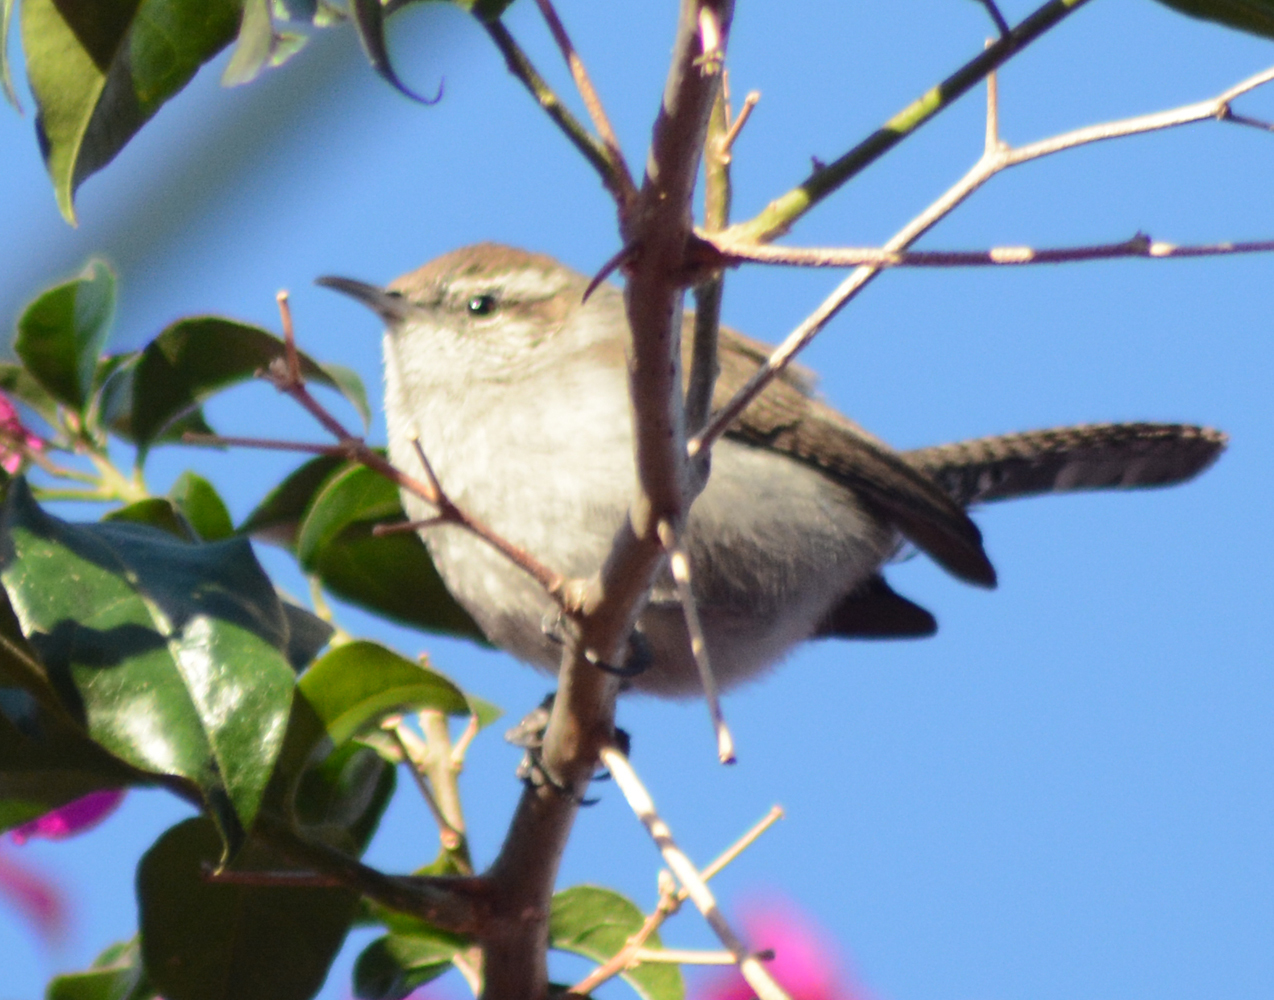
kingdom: Animalia
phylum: Chordata
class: Aves
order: Passeriformes
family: Troglodytidae
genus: Thryomanes
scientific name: Thryomanes bewickii
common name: Bewick's wren
